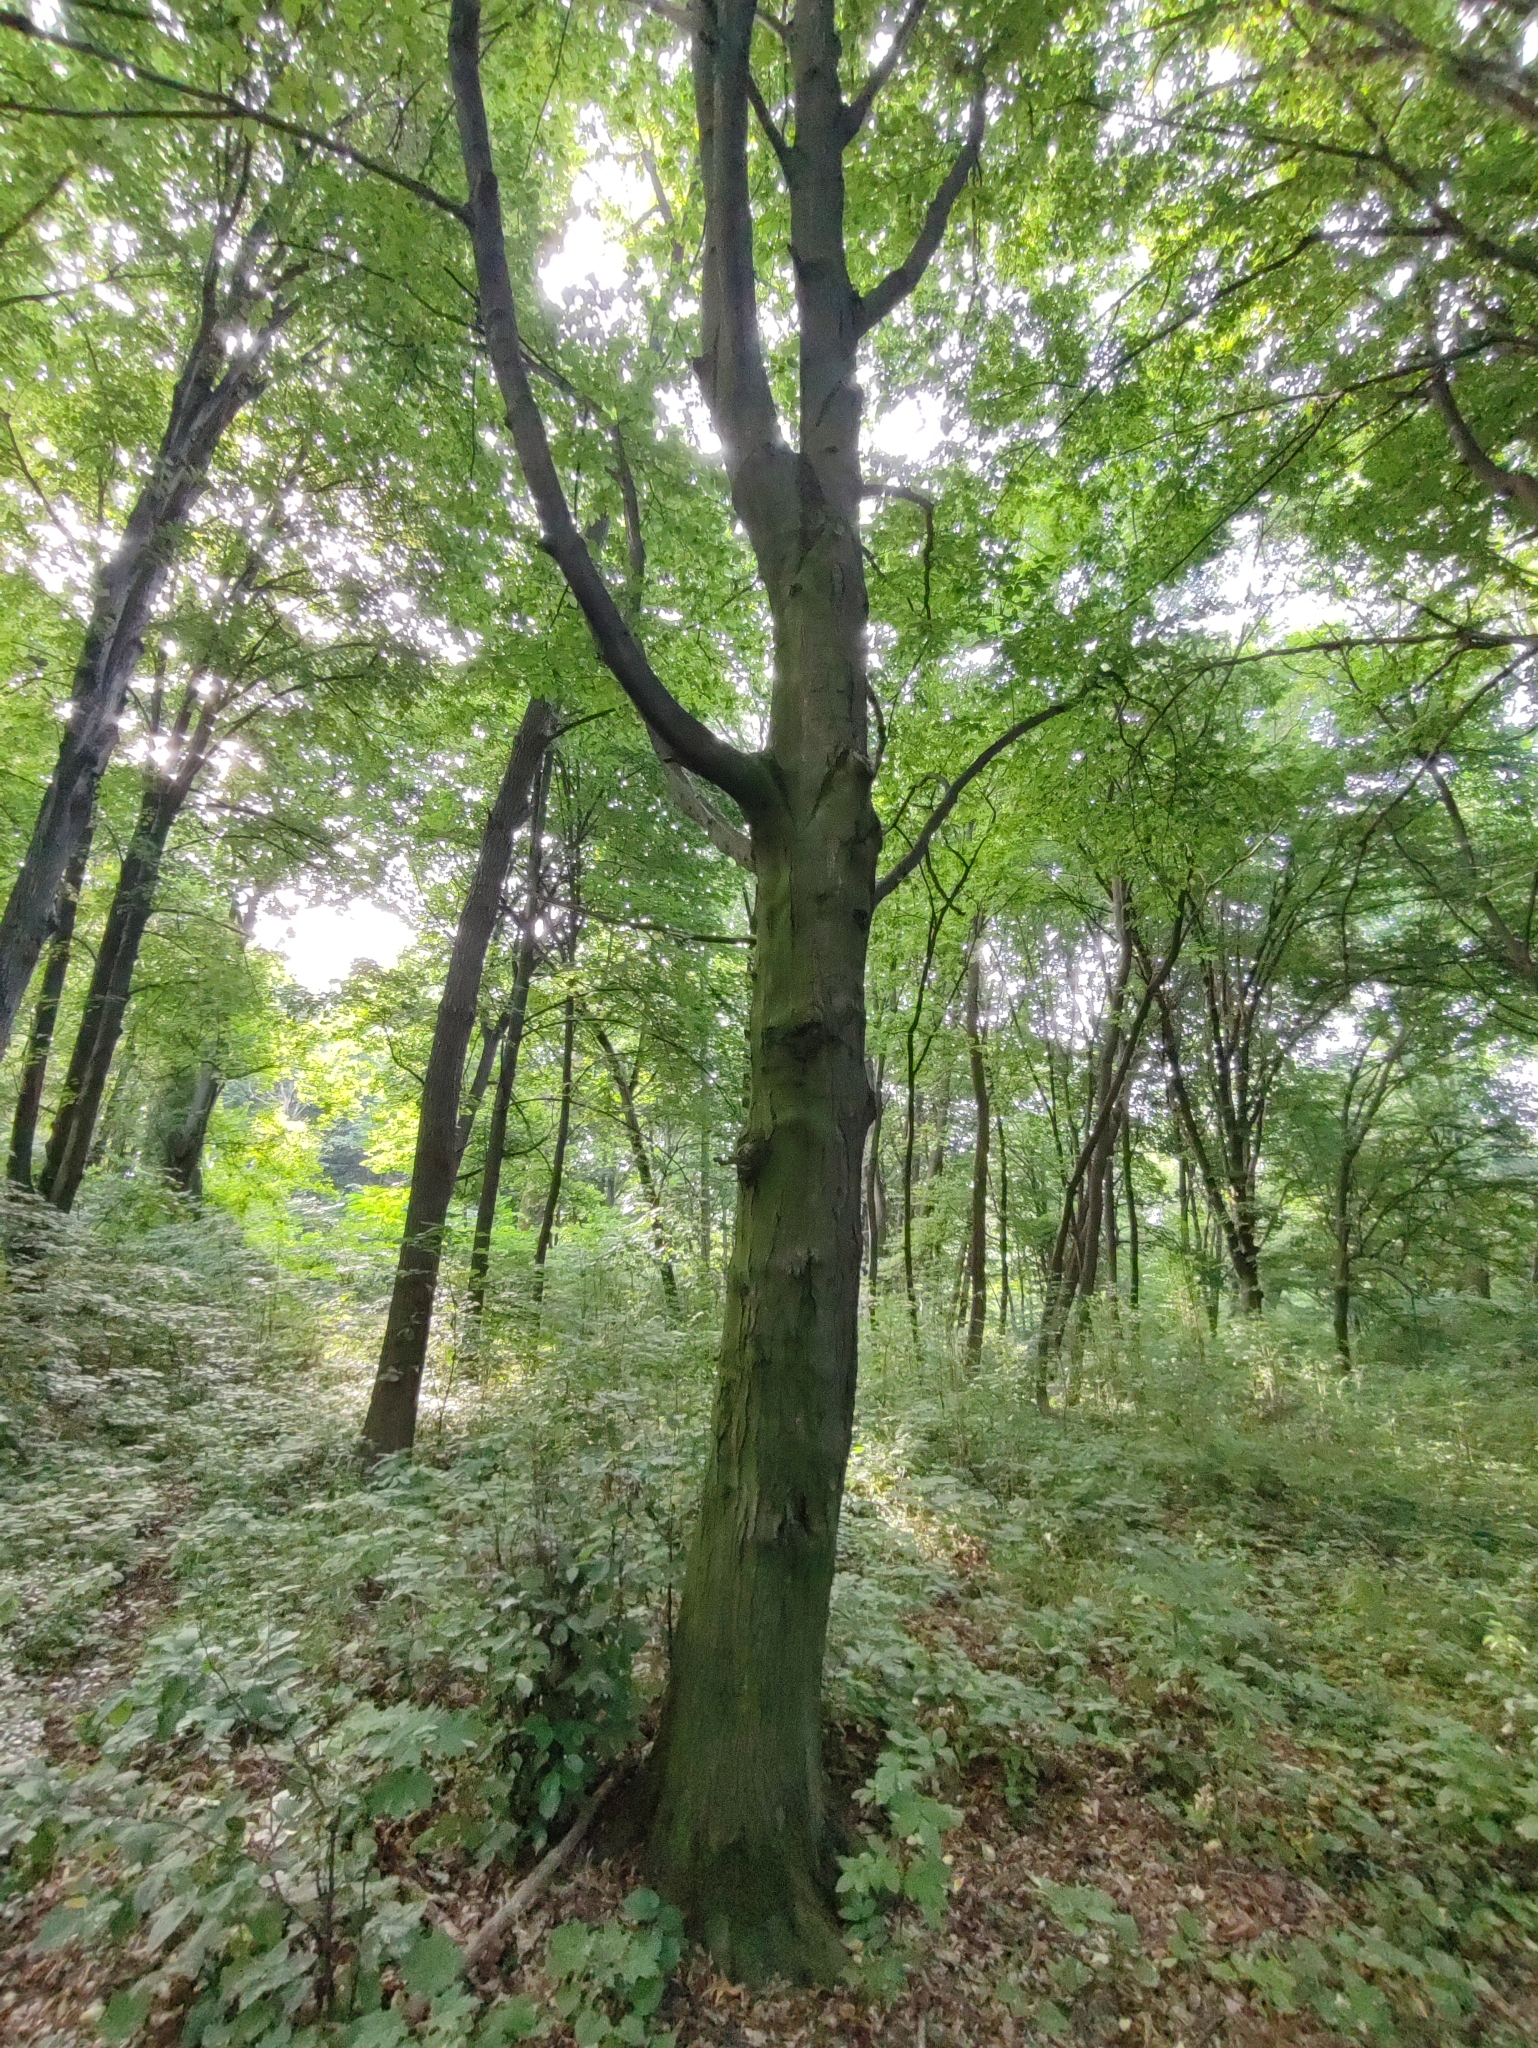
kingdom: Plantae
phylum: Tracheophyta
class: Magnoliopsida
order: Fagales
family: Betulaceae
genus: Carpinus
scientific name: Carpinus betulus
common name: Hornbeam
